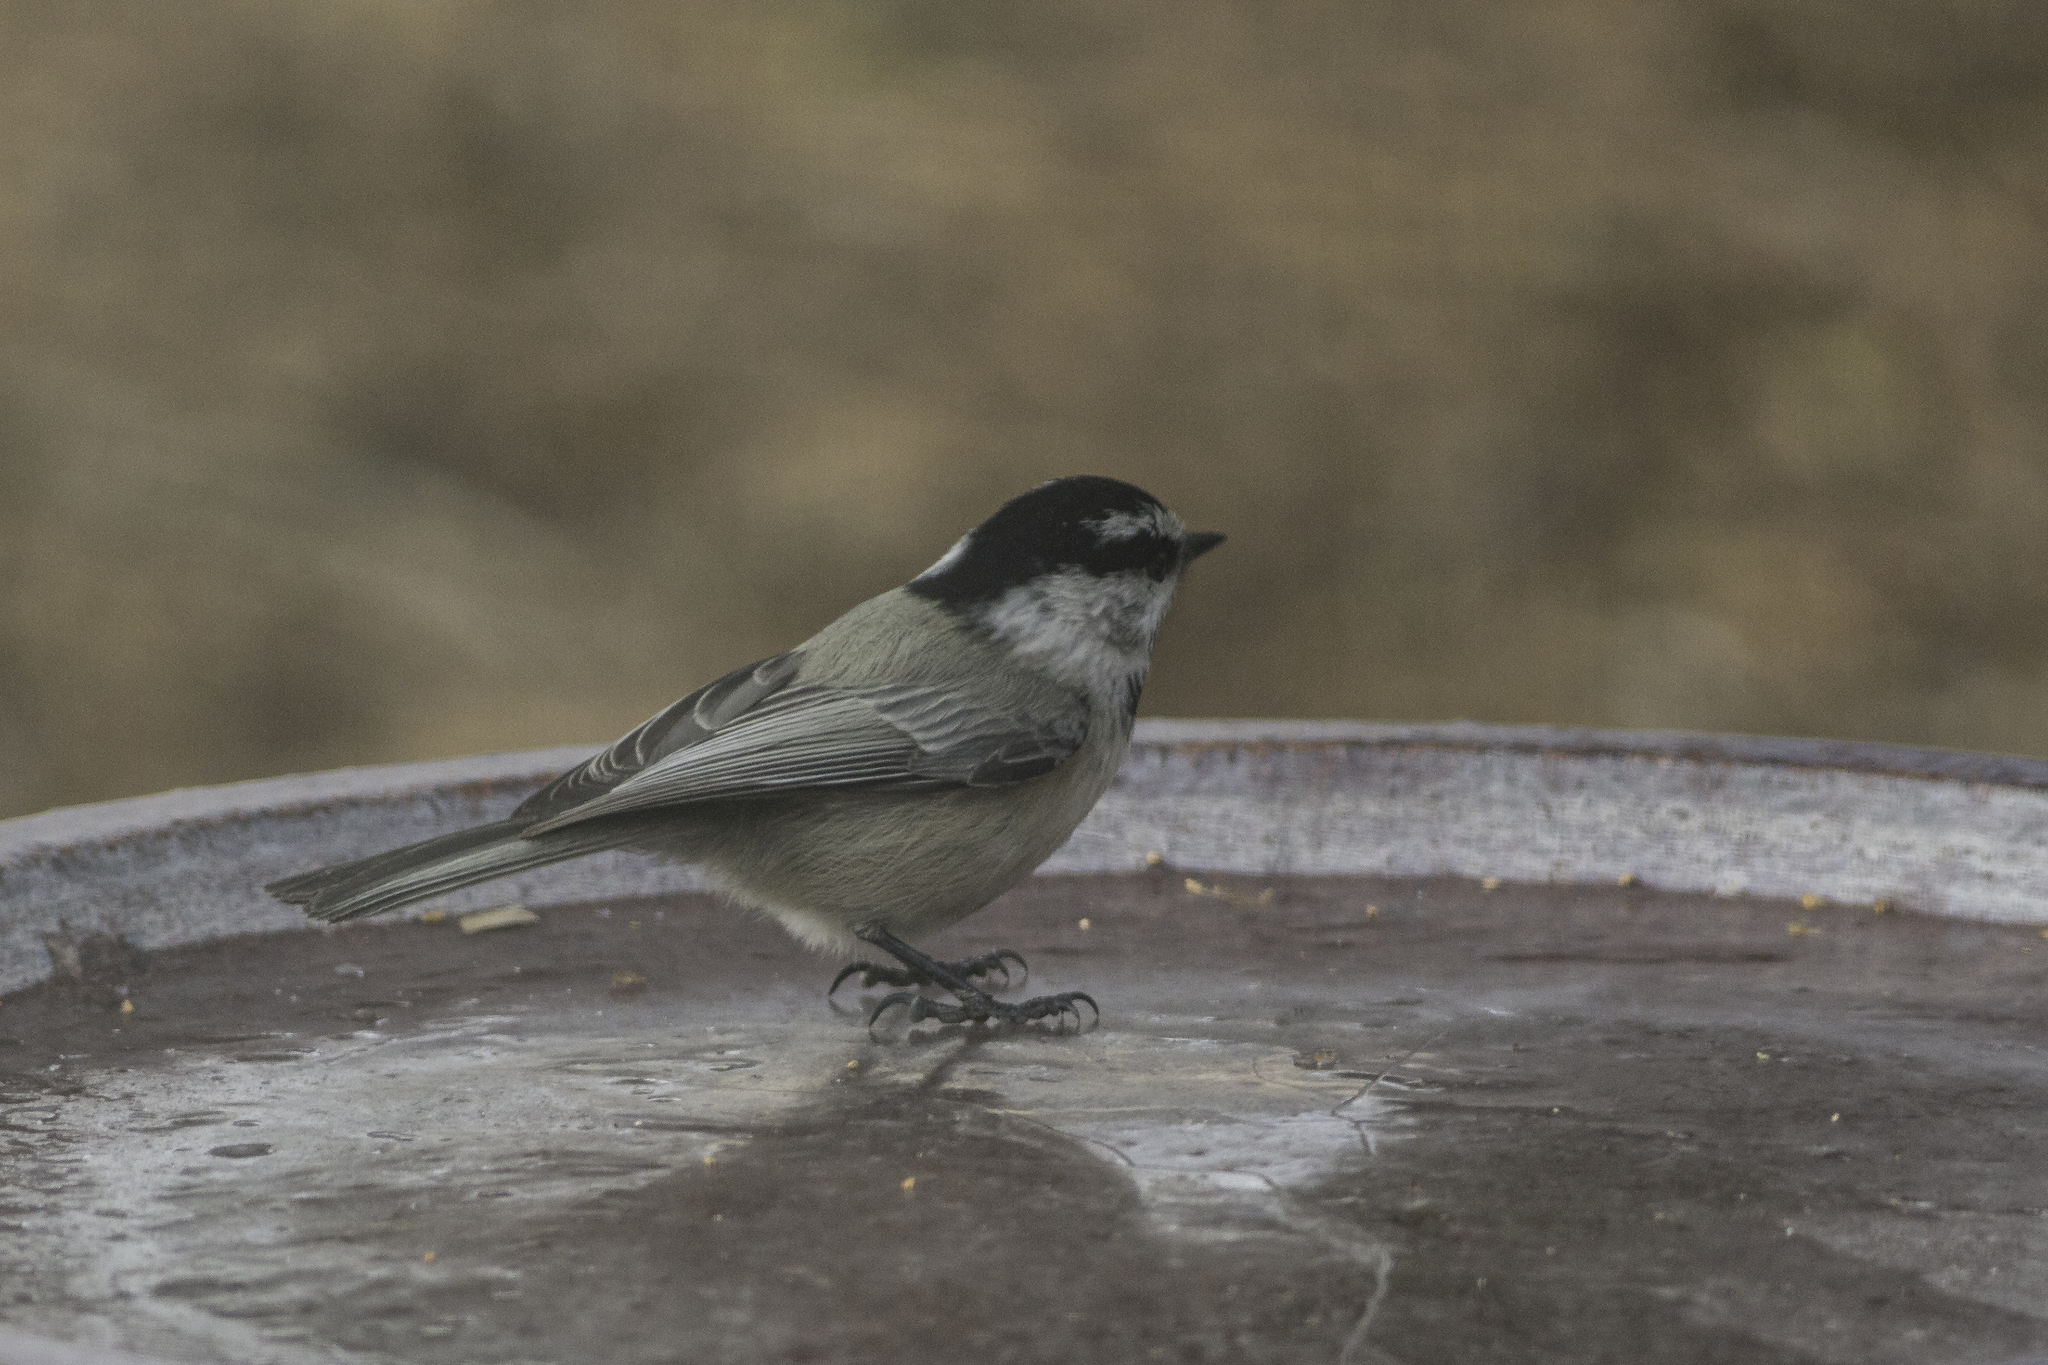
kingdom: Animalia
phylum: Chordata
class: Aves
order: Passeriformes
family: Paridae
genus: Poecile
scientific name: Poecile gambeli
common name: Mountain chickadee
